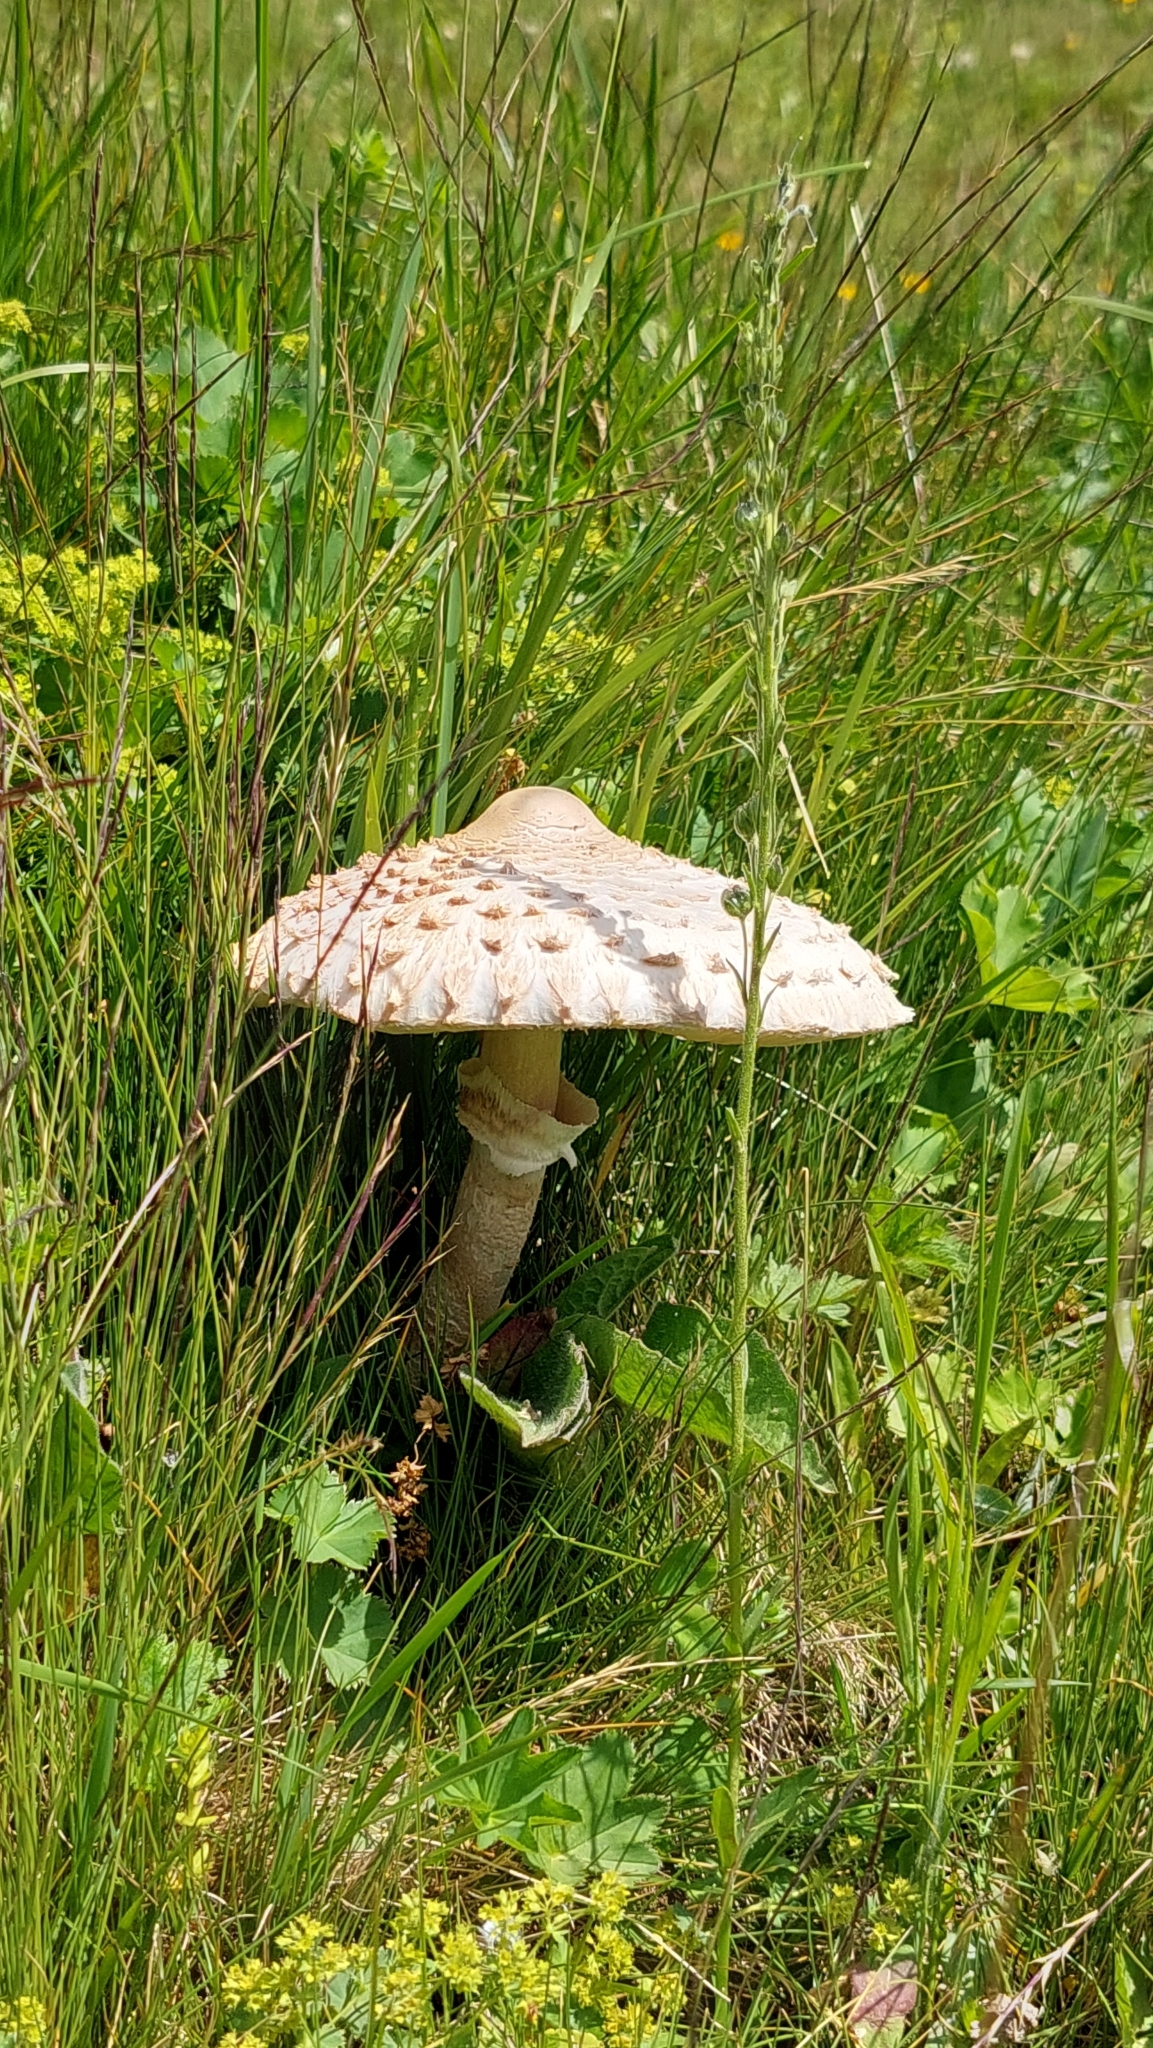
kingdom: Fungi
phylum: Basidiomycota
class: Agaricomycetes
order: Agaricales
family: Agaricaceae
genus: Macrolepiota
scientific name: Macrolepiota procera
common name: Parasol
